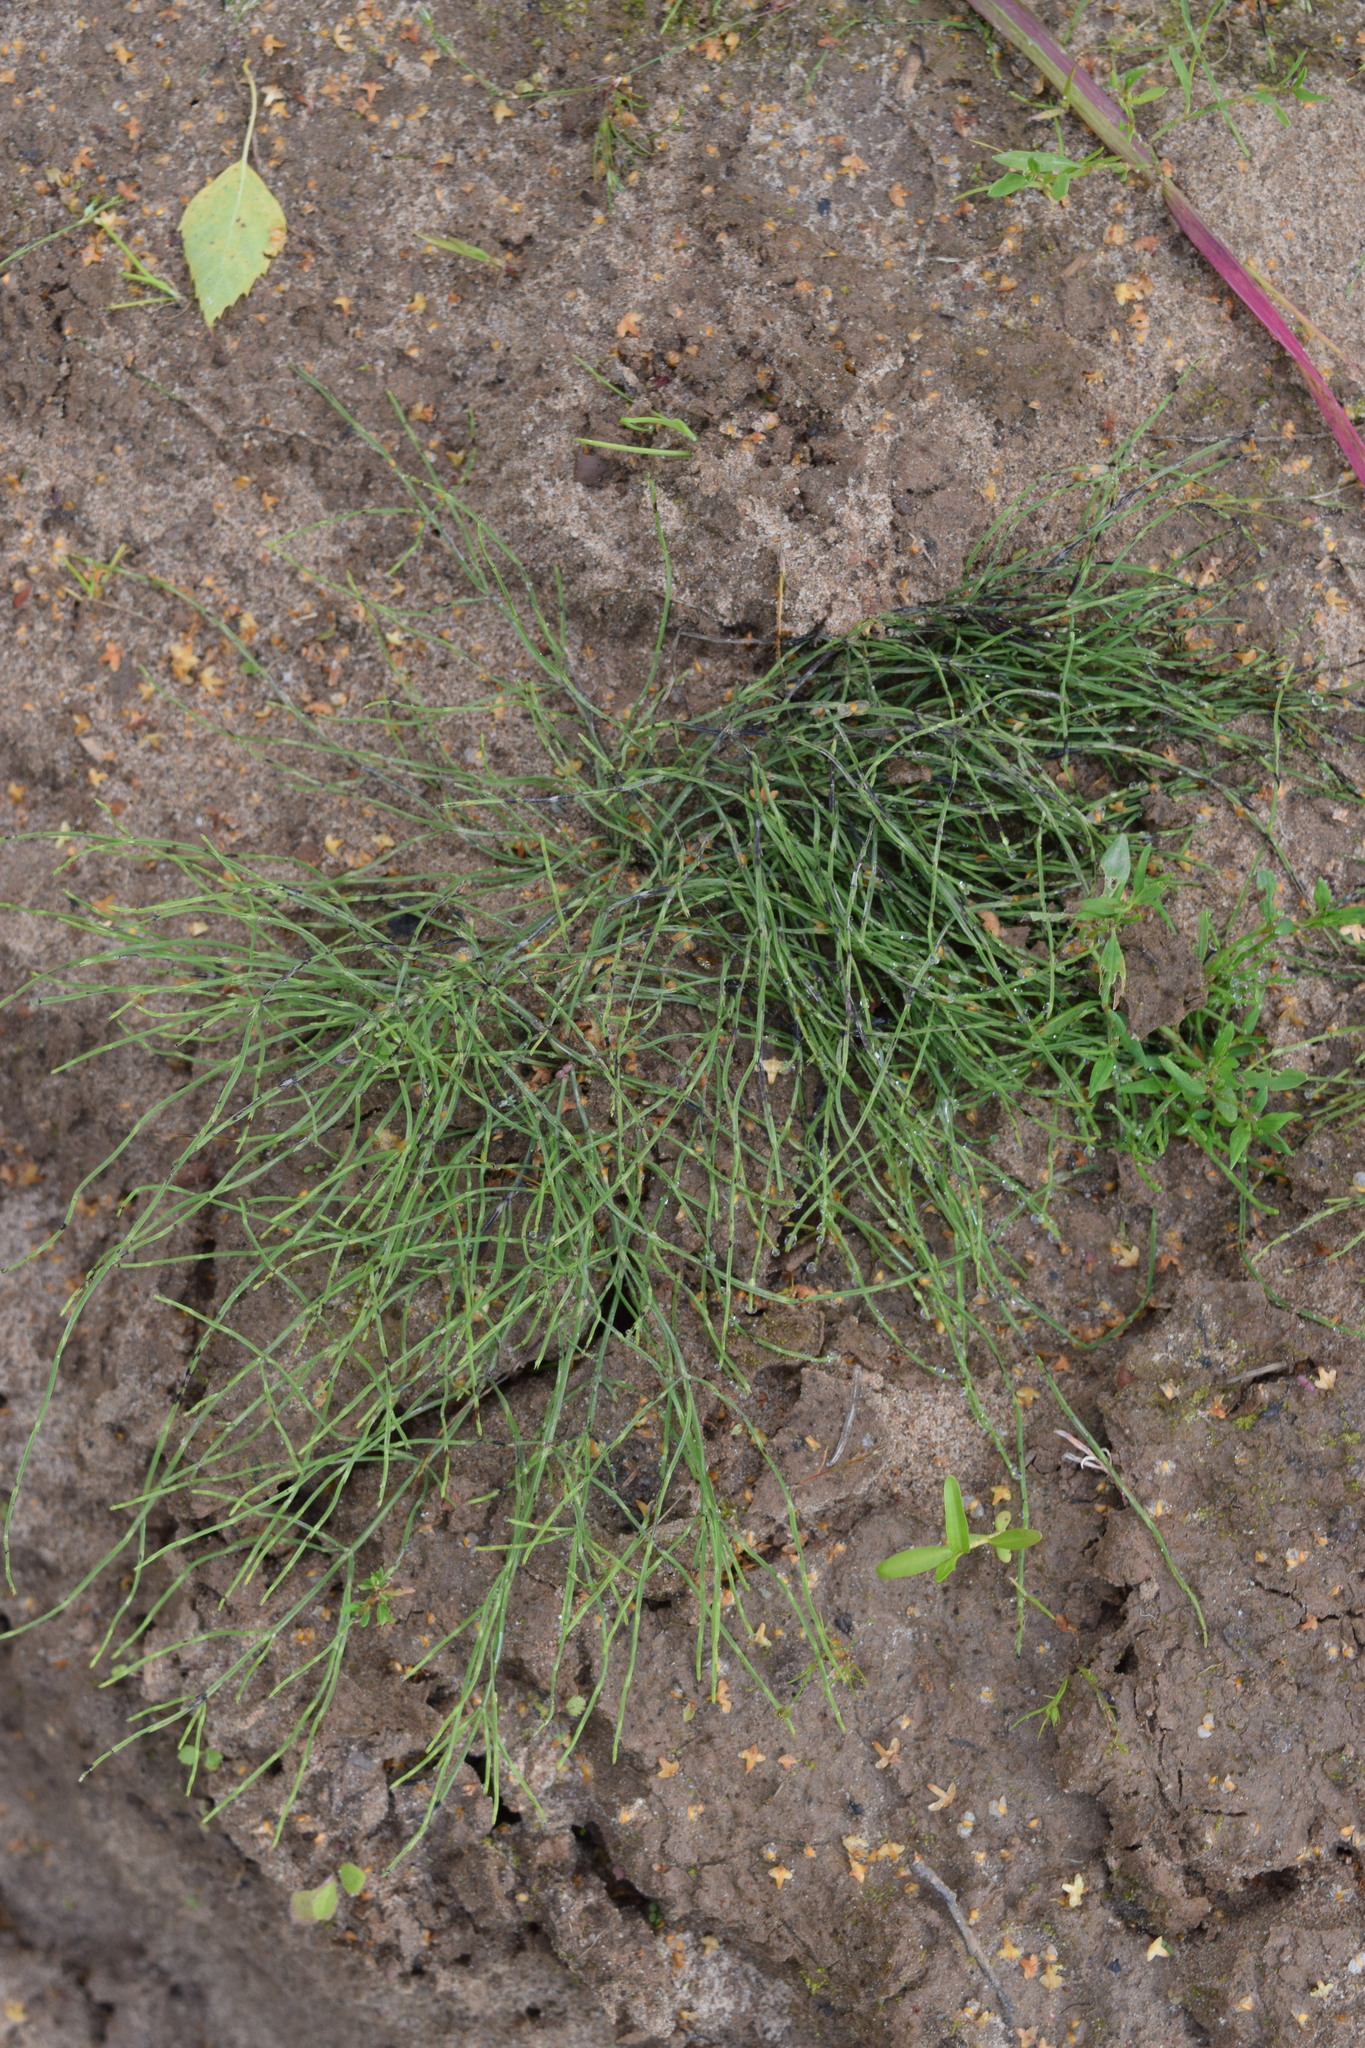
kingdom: Plantae
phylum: Tracheophyta
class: Polypodiopsida
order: Equisetales
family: Equisetaceae
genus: Equisetum
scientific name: Equisetum arvense
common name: Field horsetail
